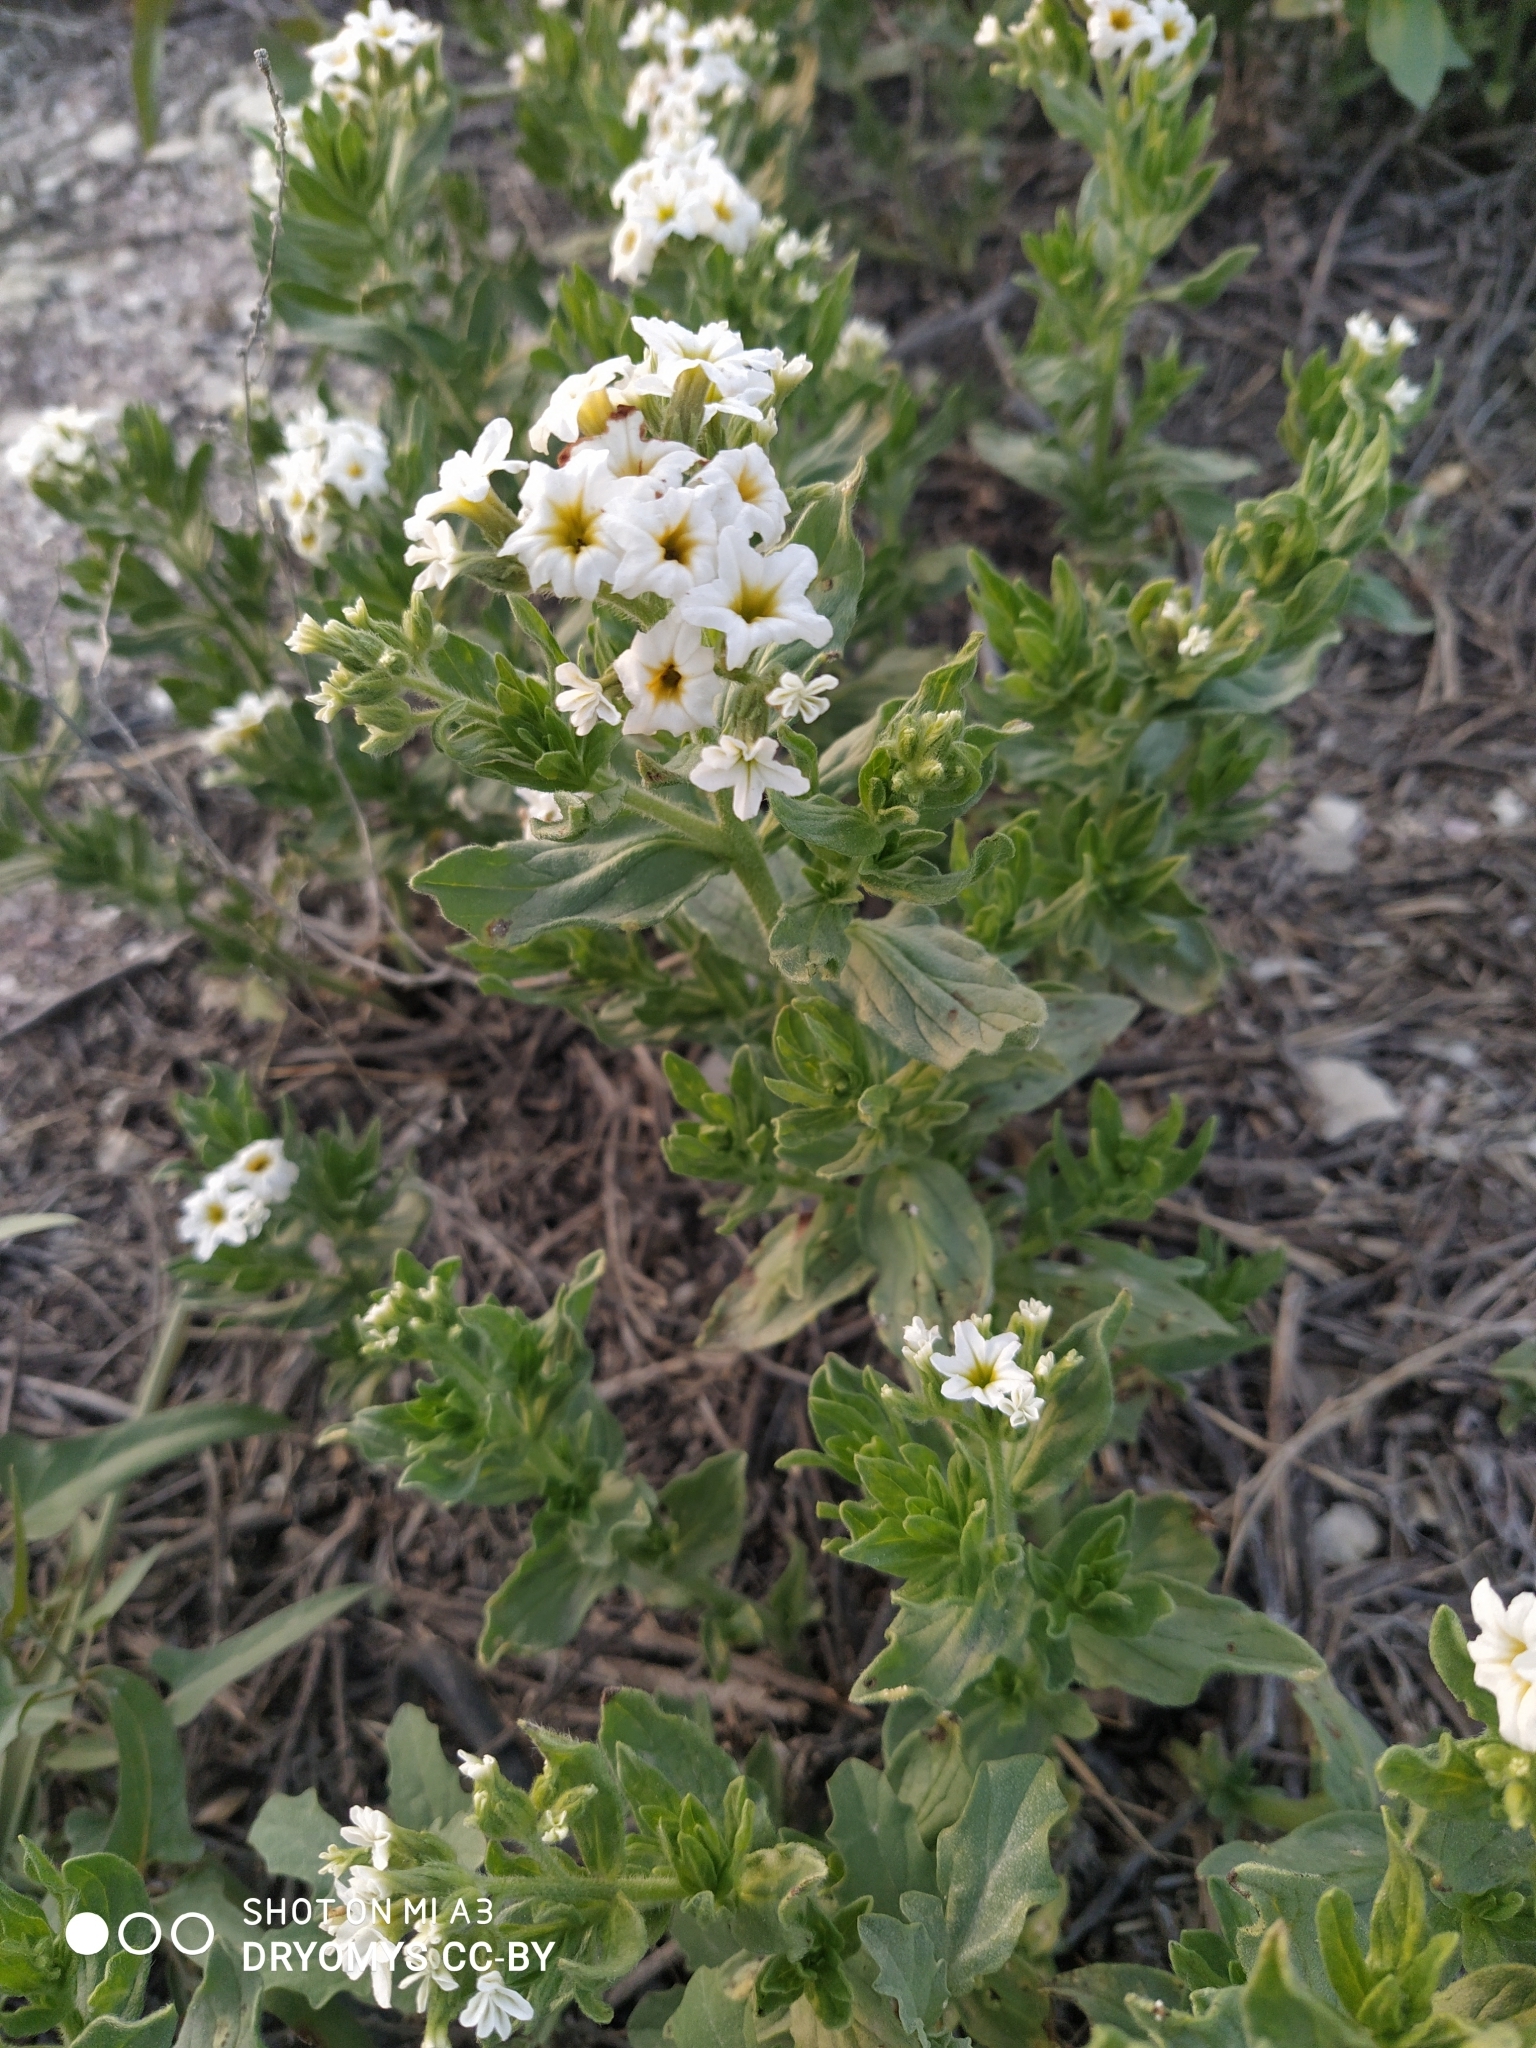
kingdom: Plantae
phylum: Tracheophyta
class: Magnoliopsida
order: Boraginales
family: Heliotropiaceae
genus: Tournefortia
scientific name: Tournefortia sibirica
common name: Siberian sea rosemary
